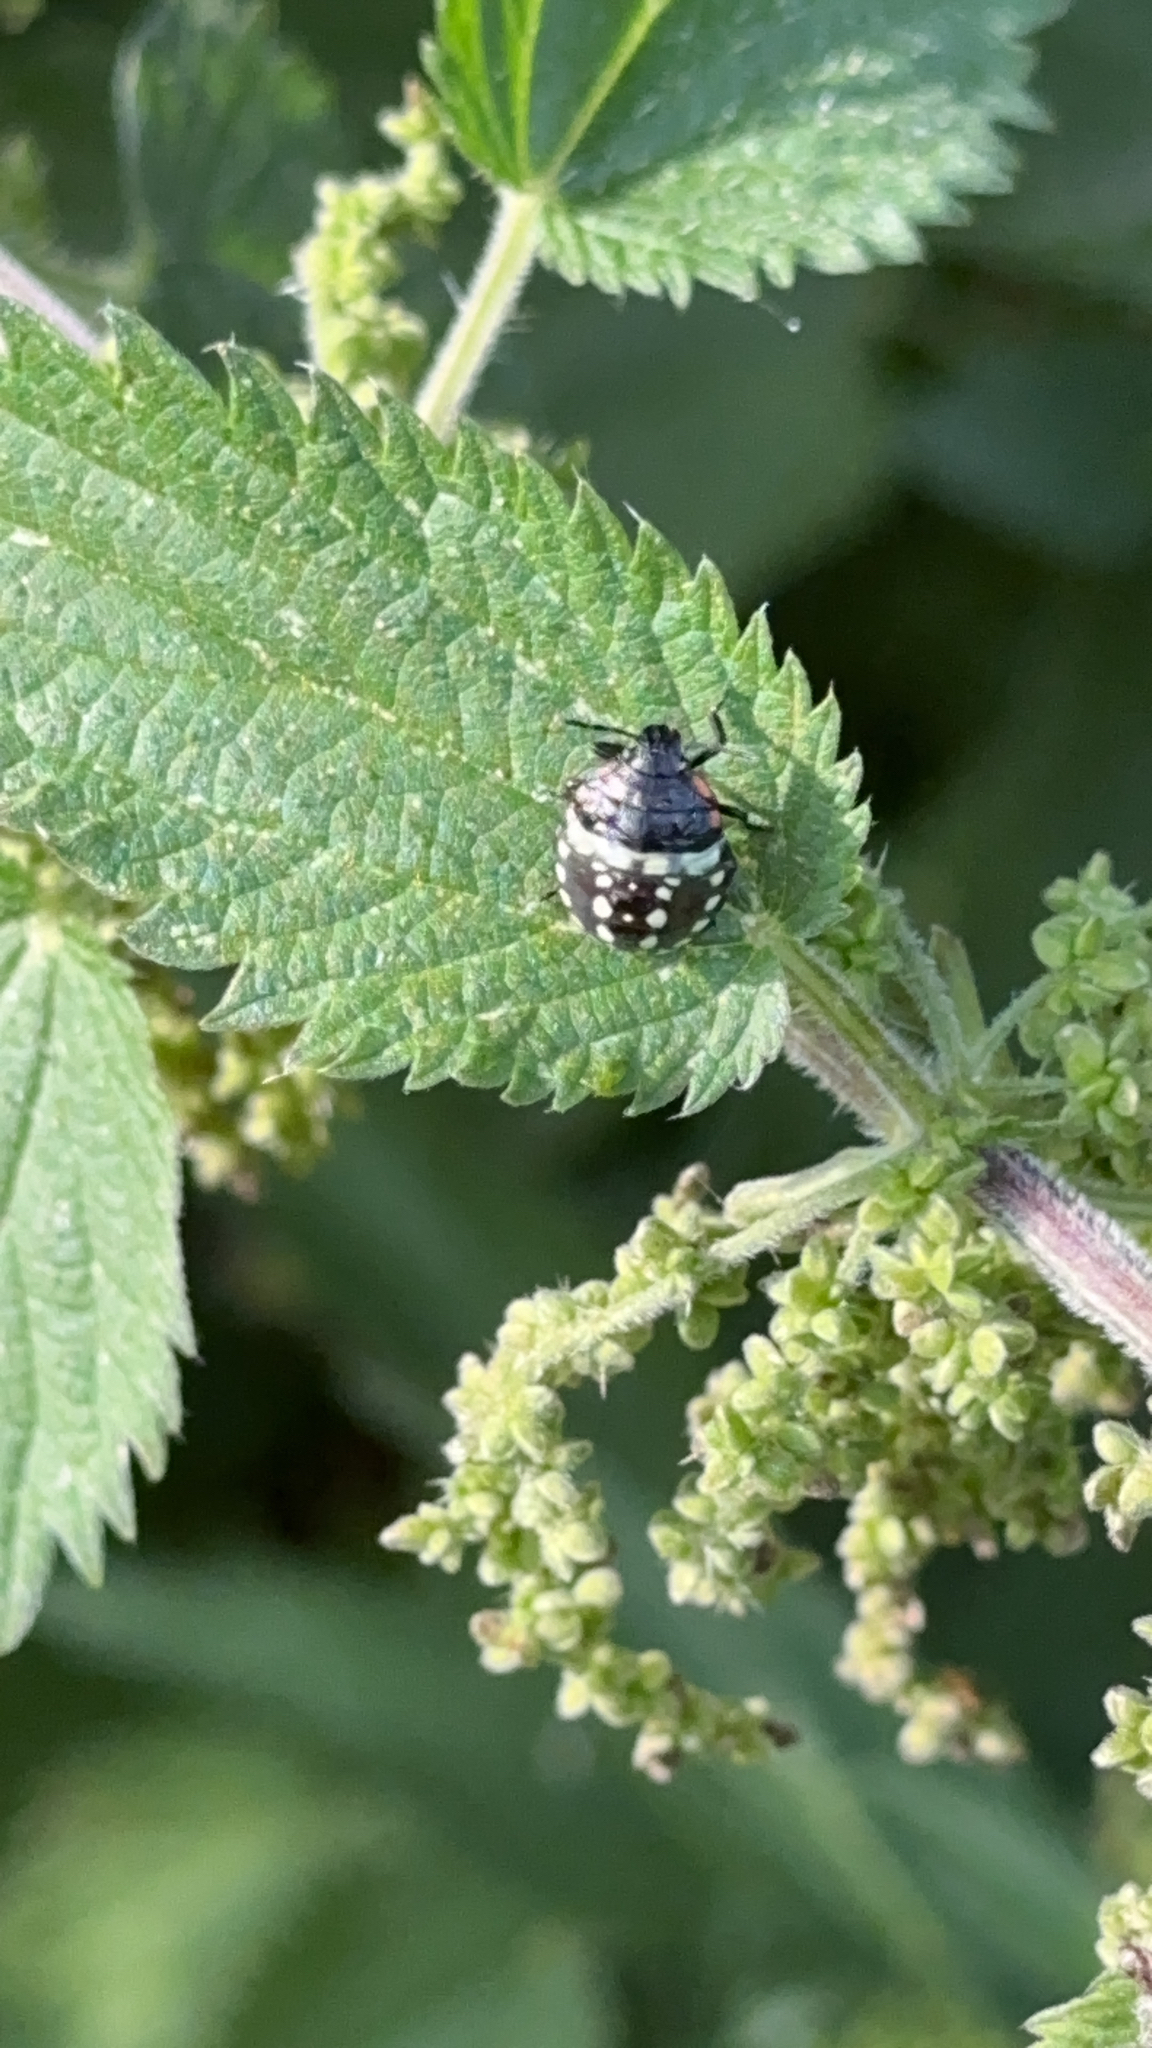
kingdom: Animalia
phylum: Arthropoda
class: Insecta
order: Hemiptera
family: Pentatomidae
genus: Nezara
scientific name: Nezara viridula
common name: Southern green stink bug
